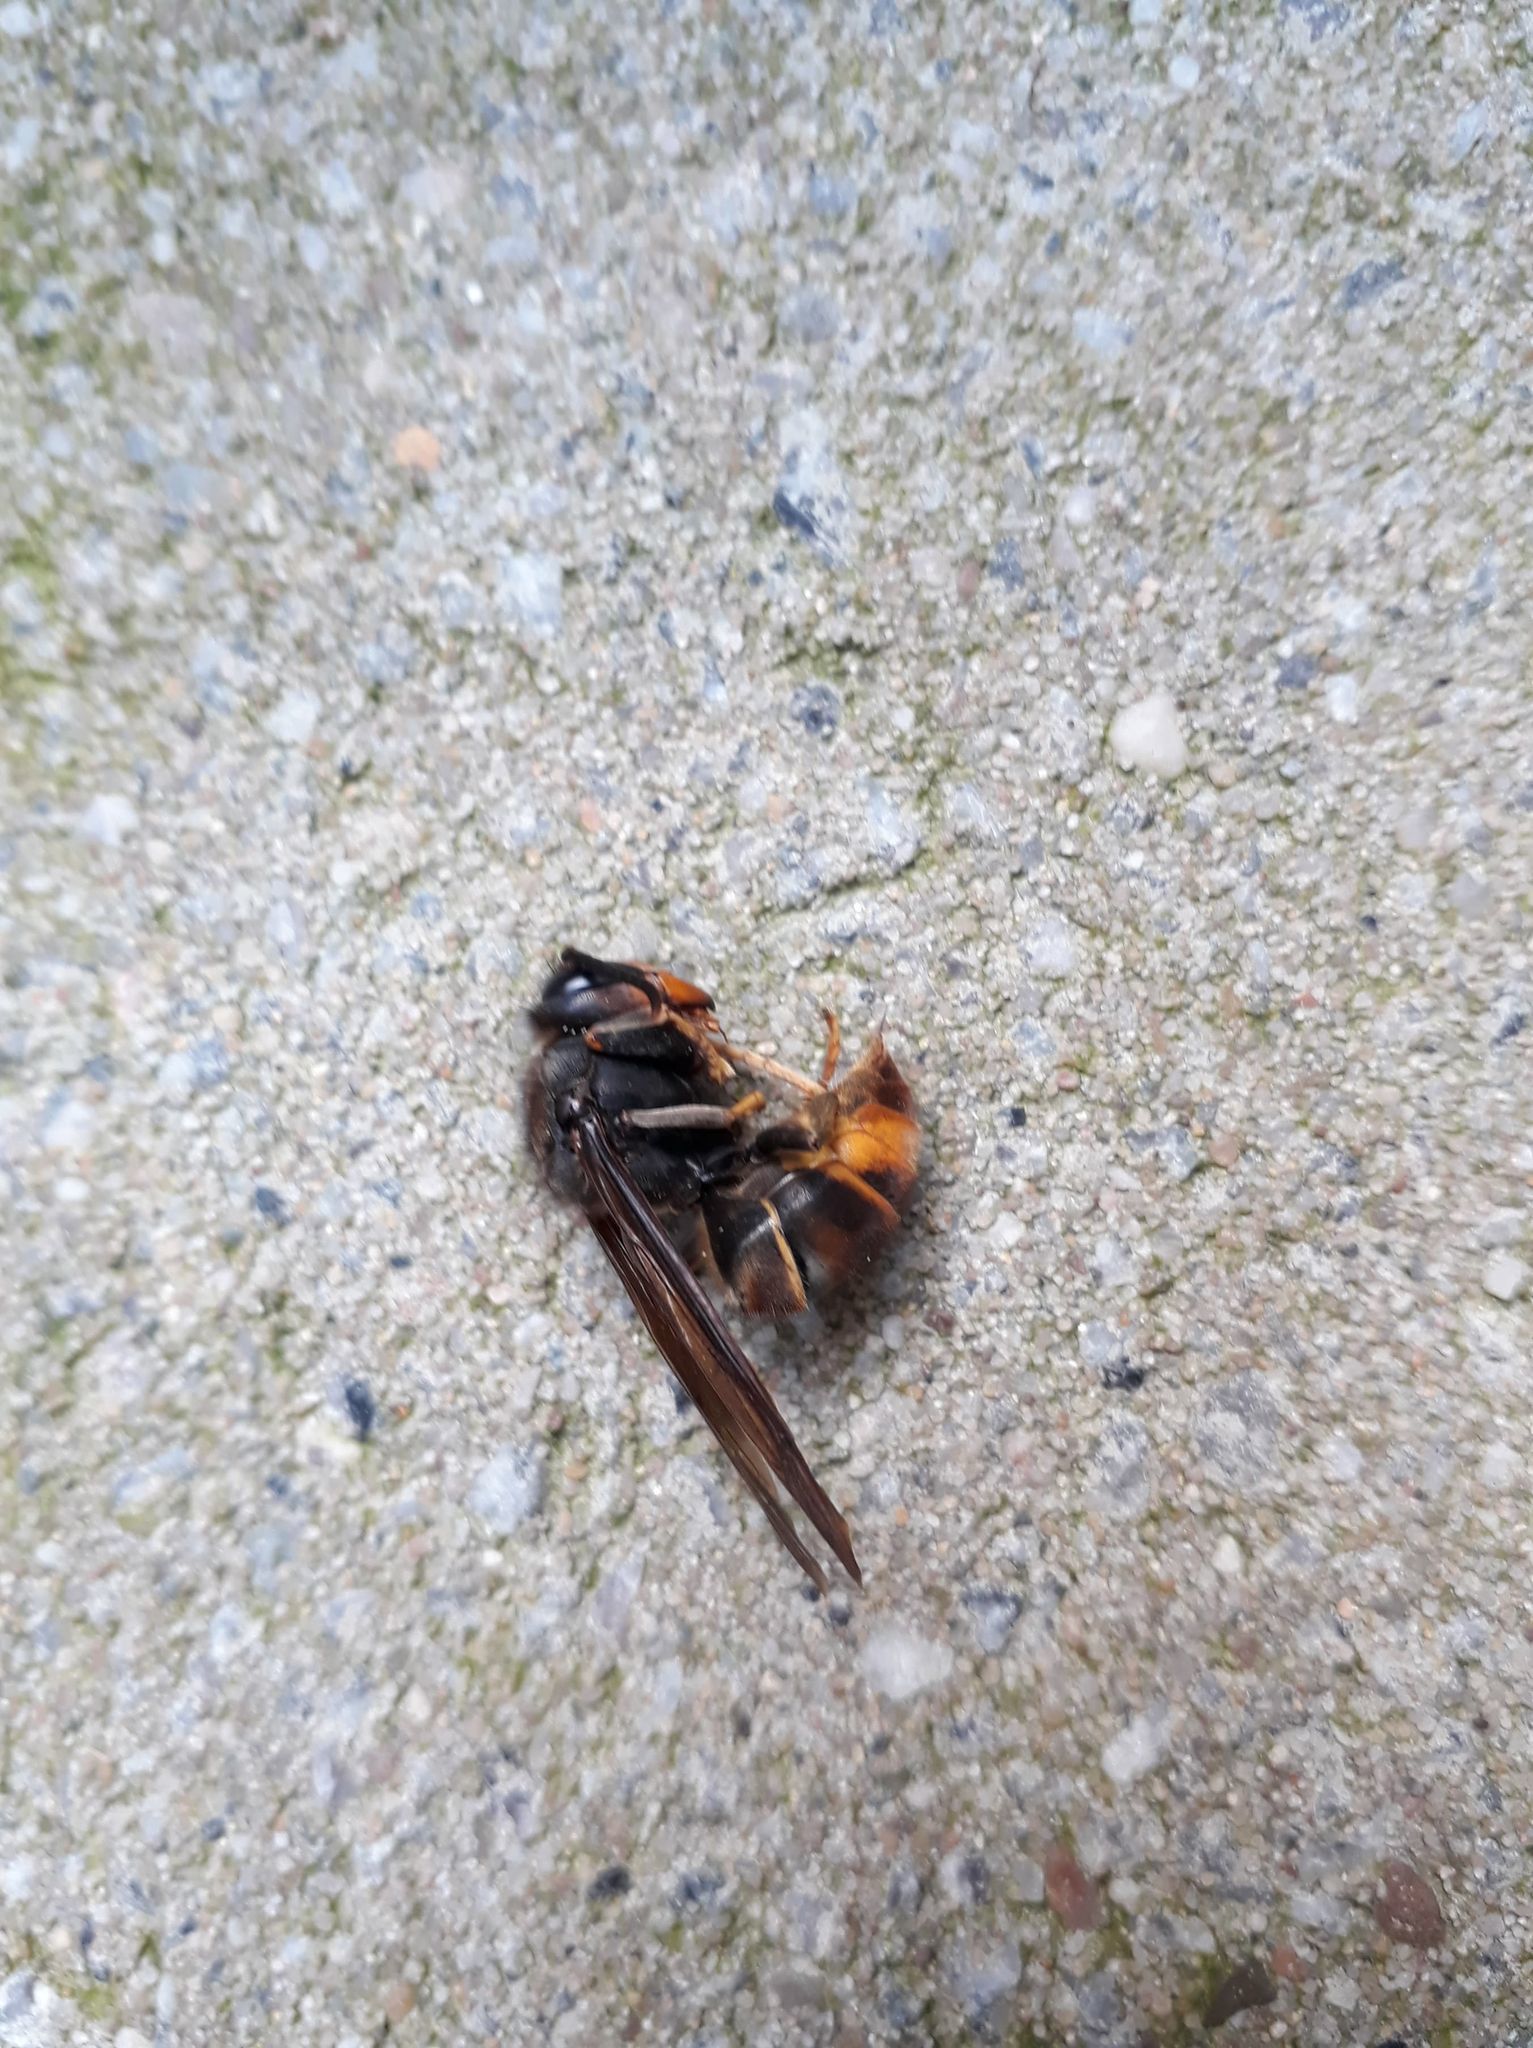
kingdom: Animalia
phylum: Arthropoda
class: Insecta
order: Hymenoptera
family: Vespidae
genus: Vespa
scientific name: Vespa velutina
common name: Asian hornet
